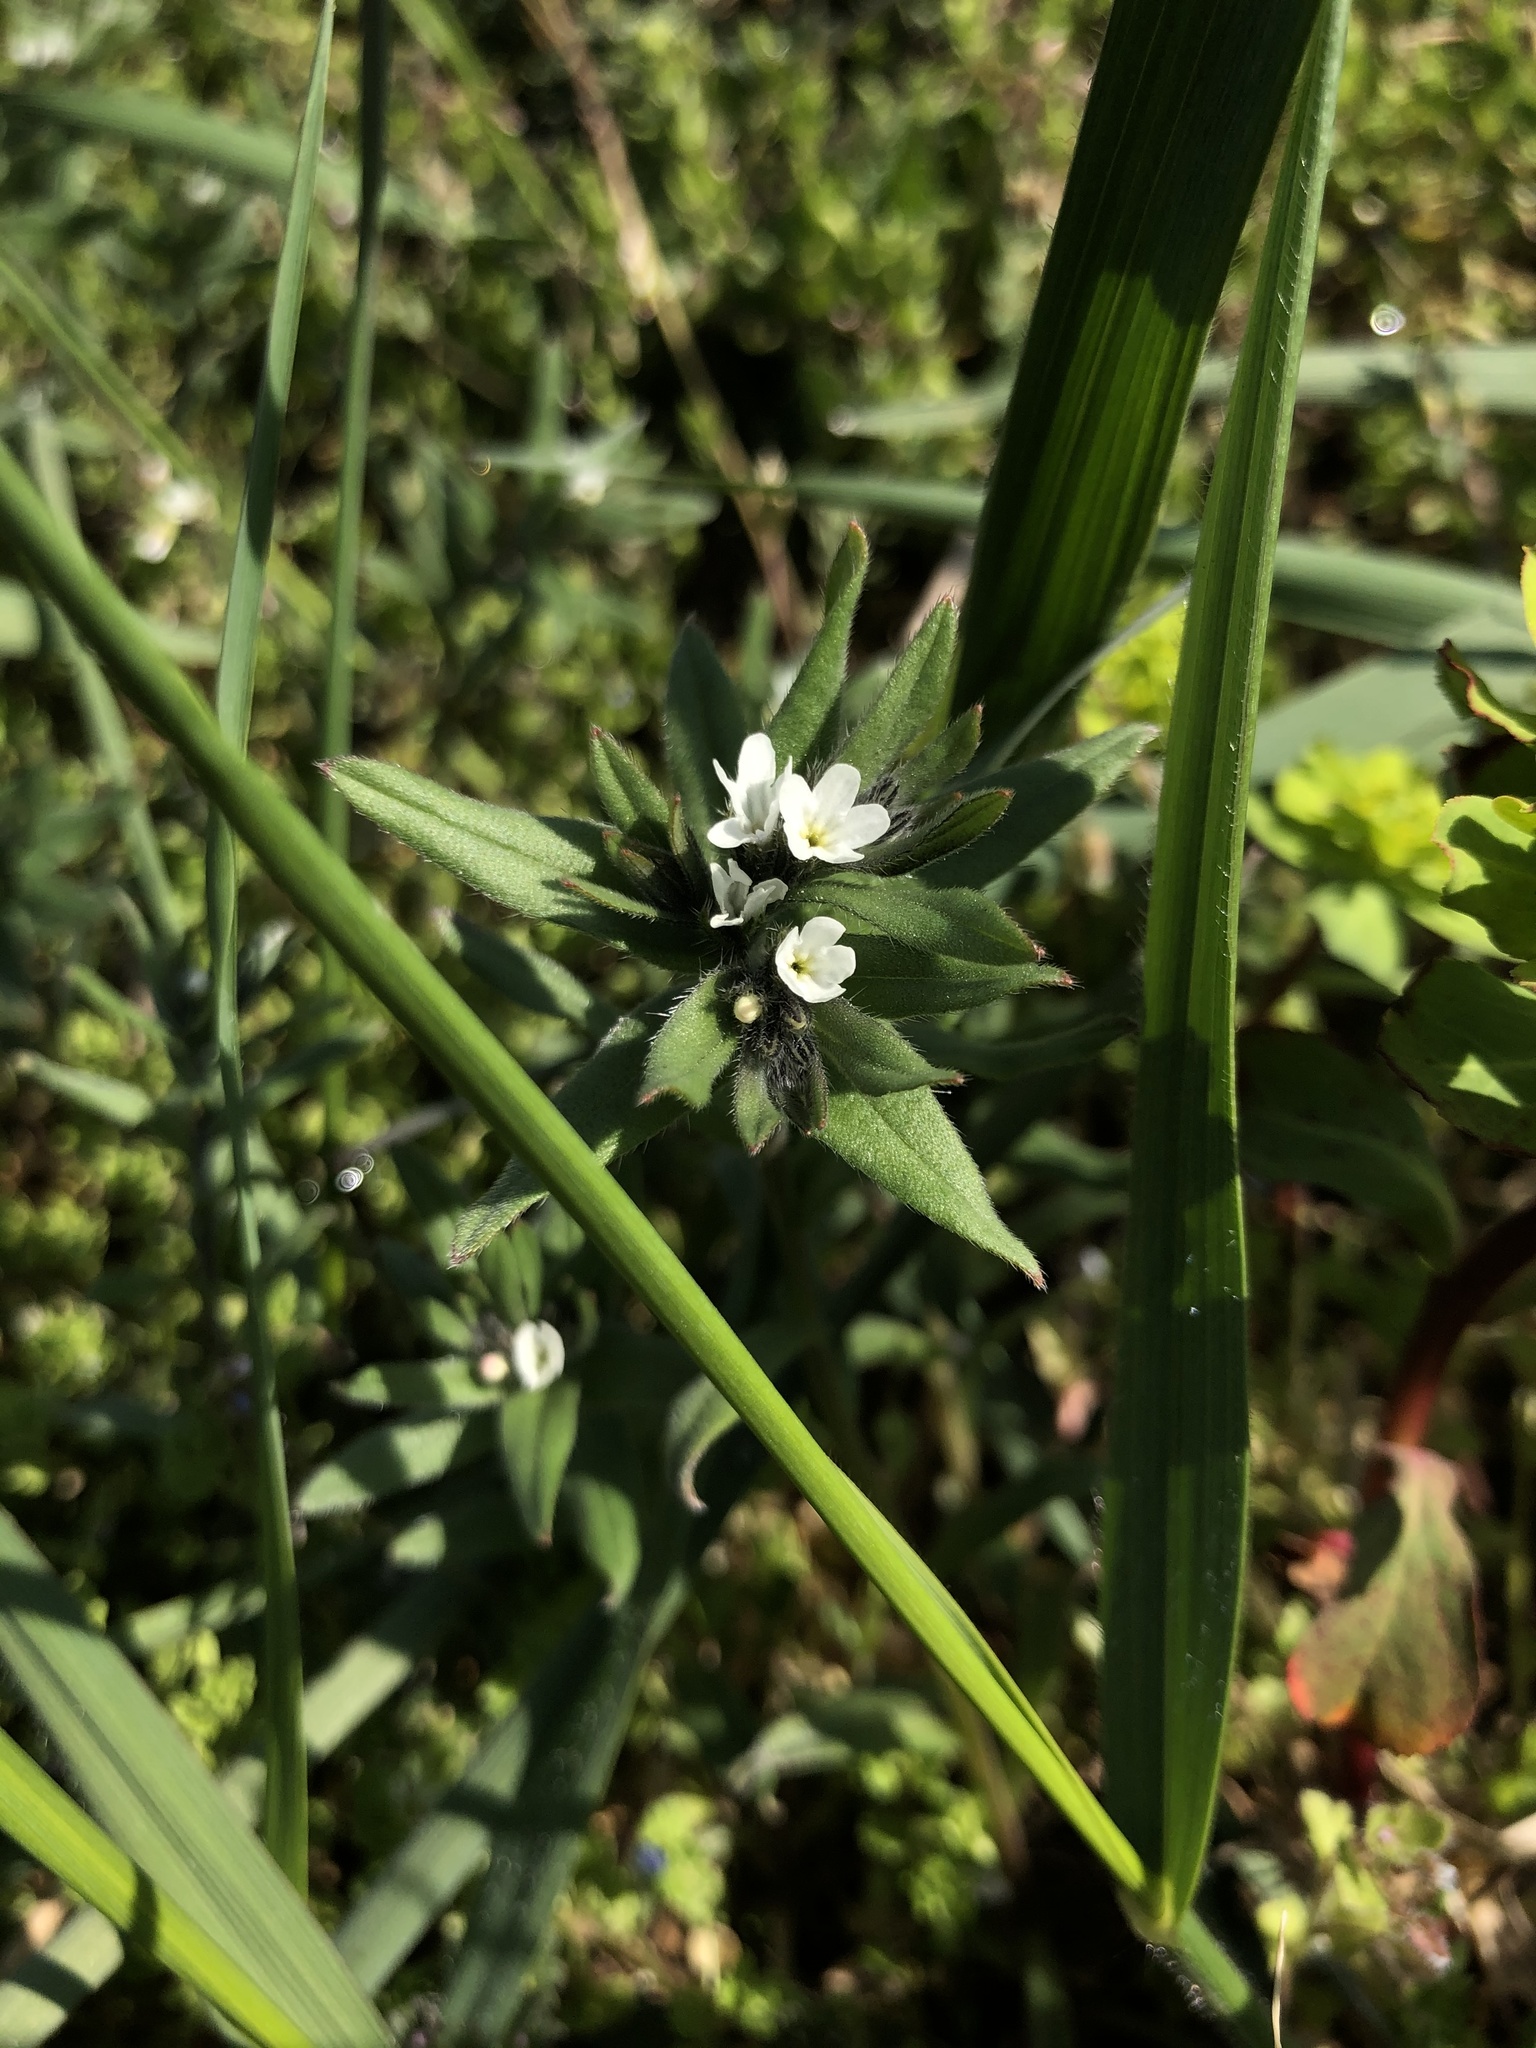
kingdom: Plantae
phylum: Tracheophyta
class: Magnoliopsida
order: Boraginales
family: Boraginaceae
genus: Buglossoides
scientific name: Buglossoides arvensis
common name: Corn gromwell
